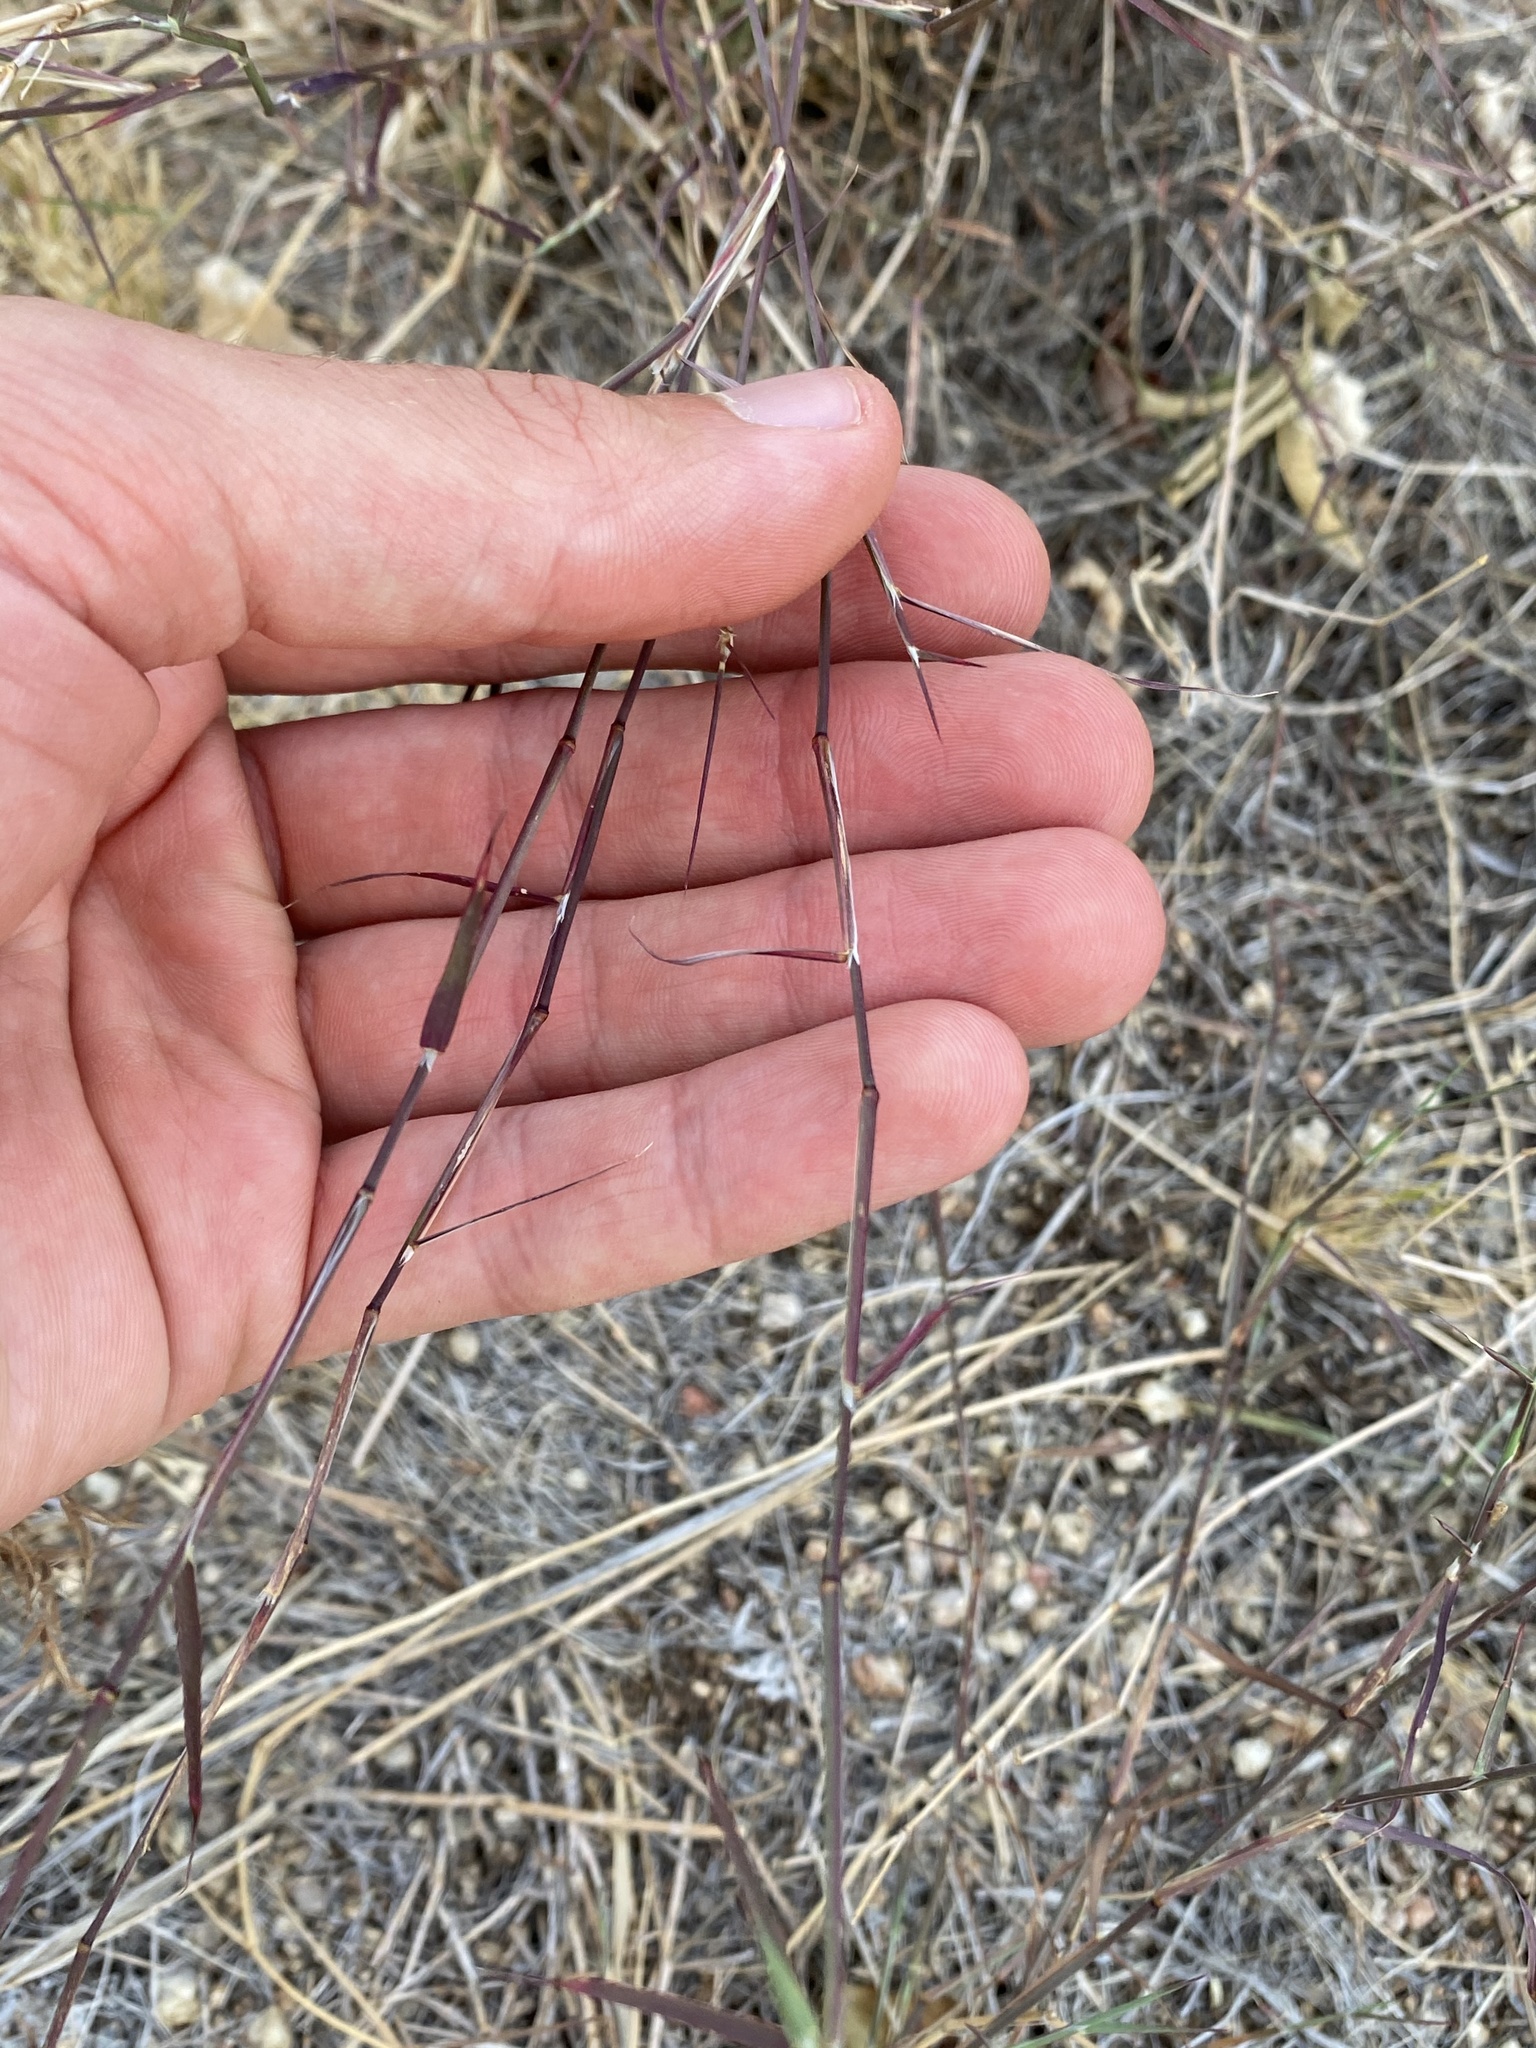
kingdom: Plantae
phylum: Tracheophyta
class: Liliopsida
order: Poales
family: Poaceae
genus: Muhlenbergia
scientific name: Muhlenbergia porteri
